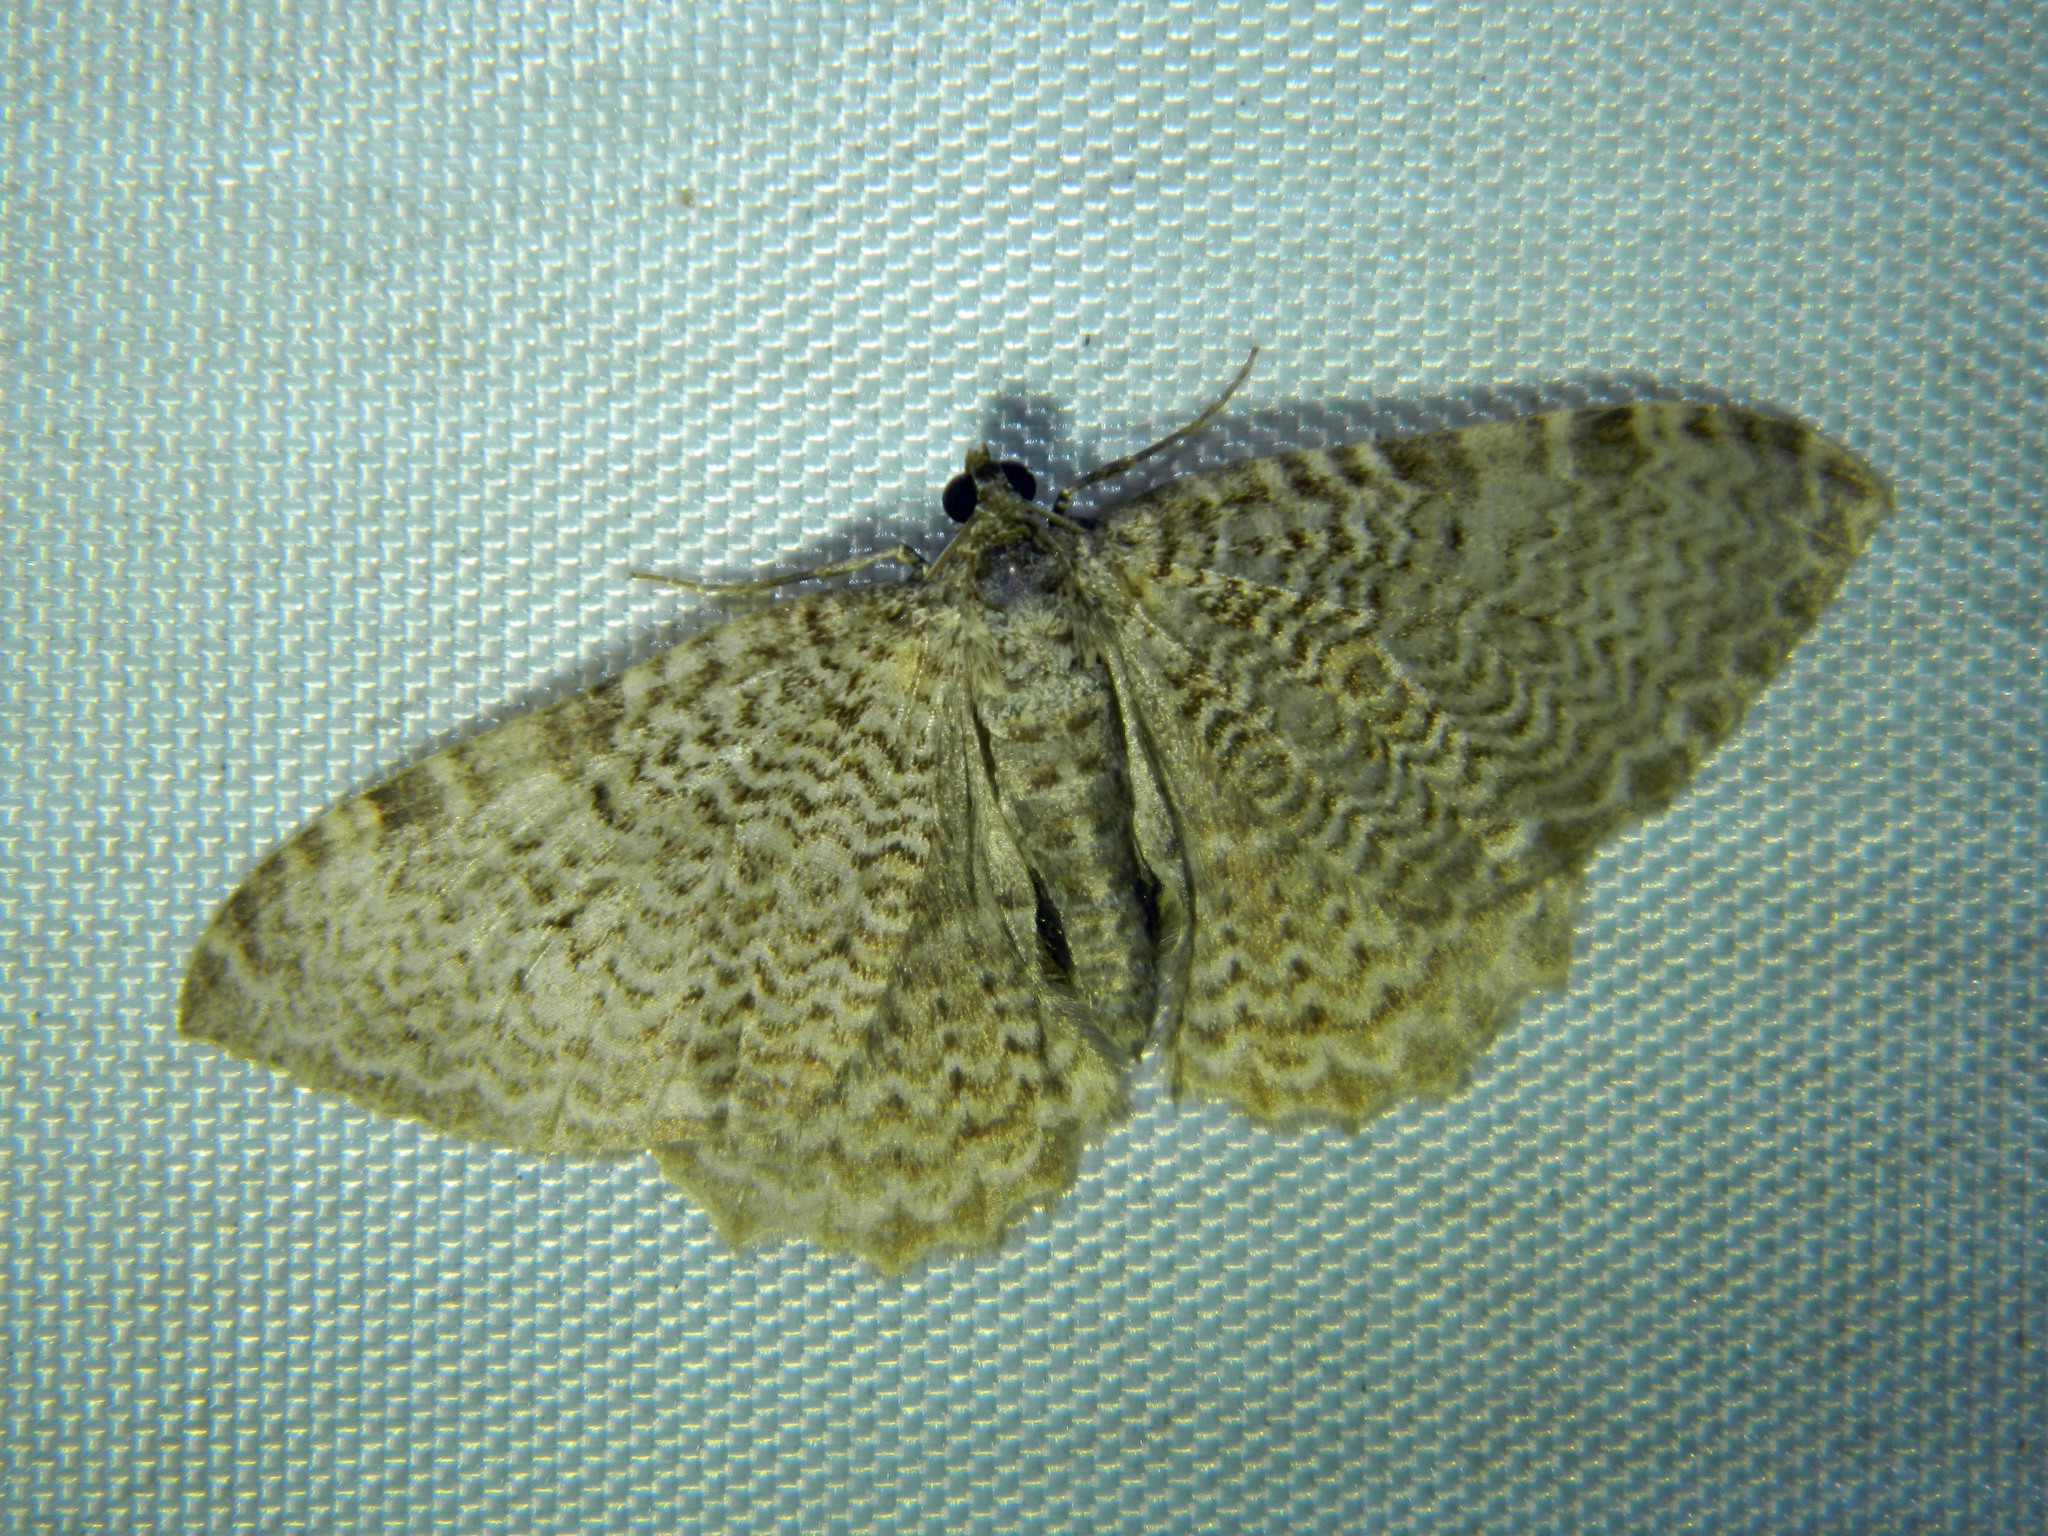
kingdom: Animalia
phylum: Arthropoda
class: Insecta
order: Lepidoptera
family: Geometridae
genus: Rheumaptera
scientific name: Rheumaptera
